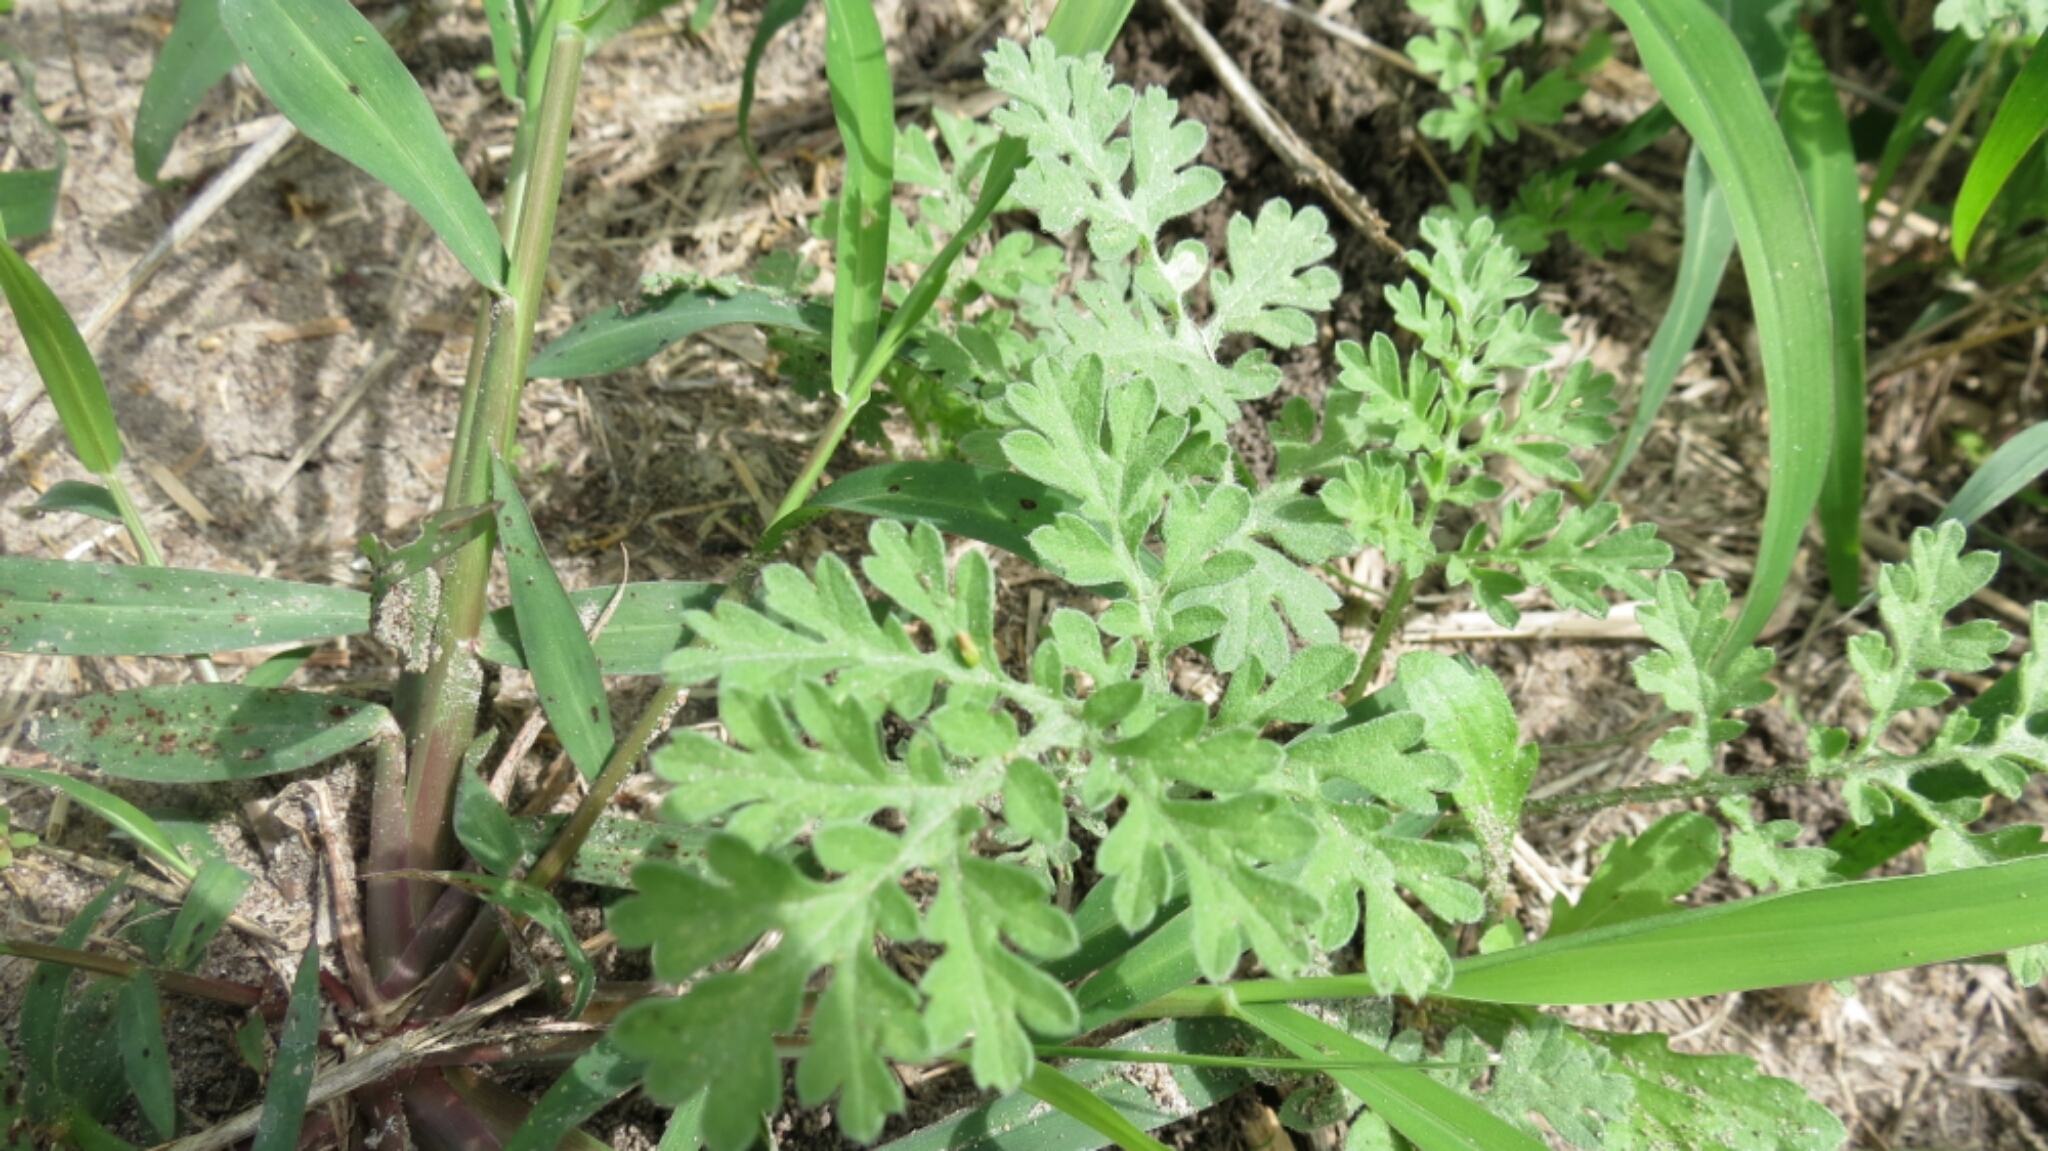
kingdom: Plantae
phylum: Tracheophyta
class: Magnoliopsida
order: Asterales
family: Asteraceae
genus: Ambrosia
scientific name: Ambrosia psilostachya
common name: Perennial ragweed
